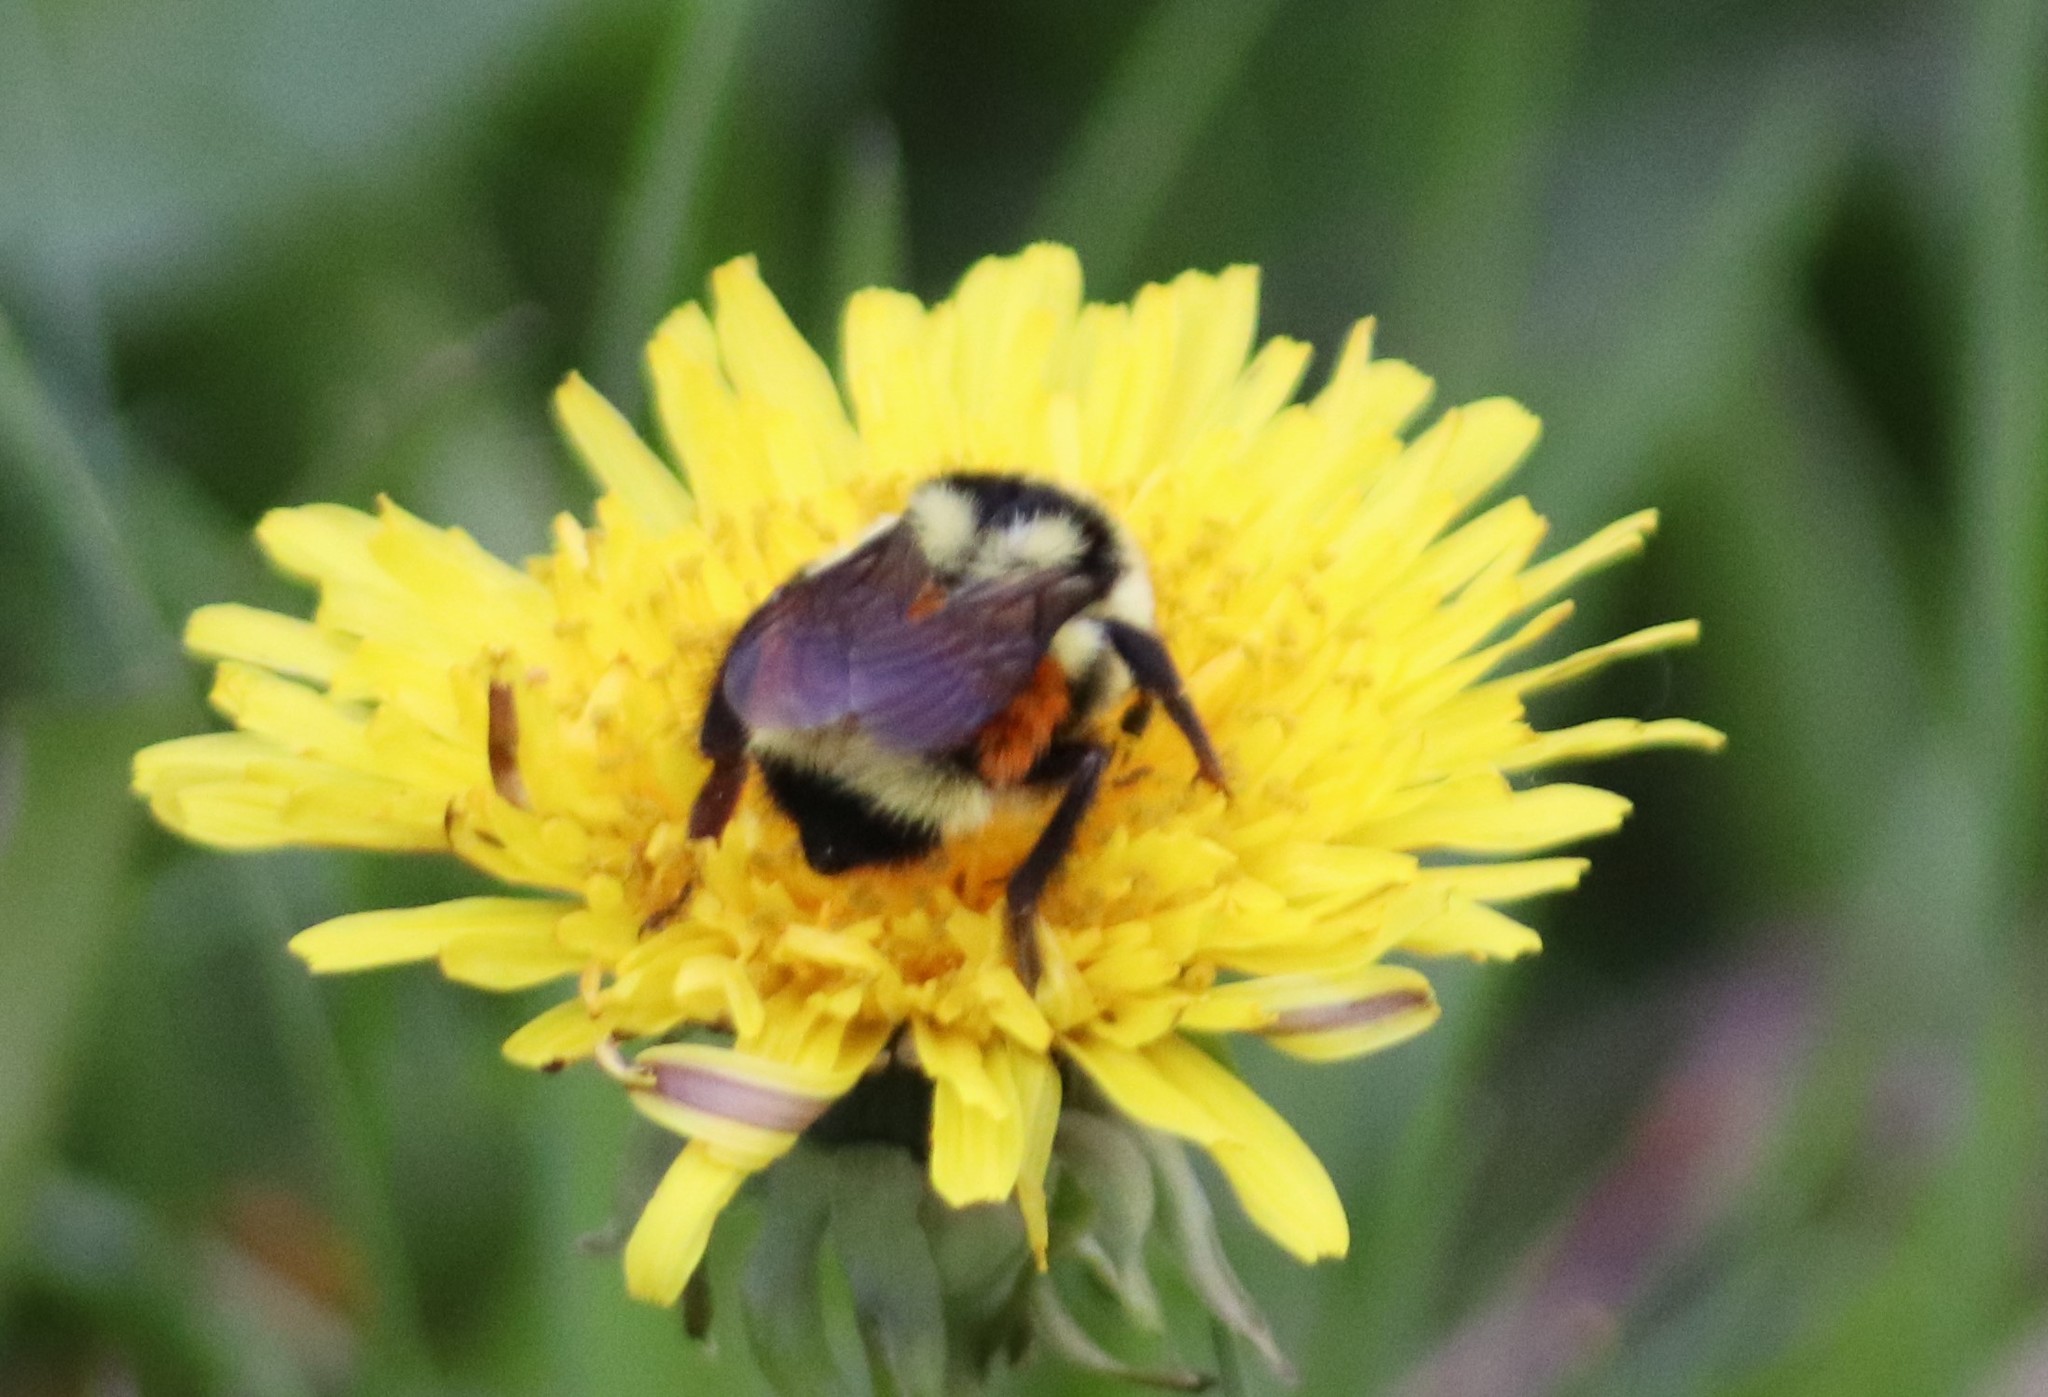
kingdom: Animalia
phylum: Arthropoda
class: Insecta
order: Hymenoptera
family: Apidae
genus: Bombus
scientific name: Bombus ternarius
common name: Tri-colored bumble bee
